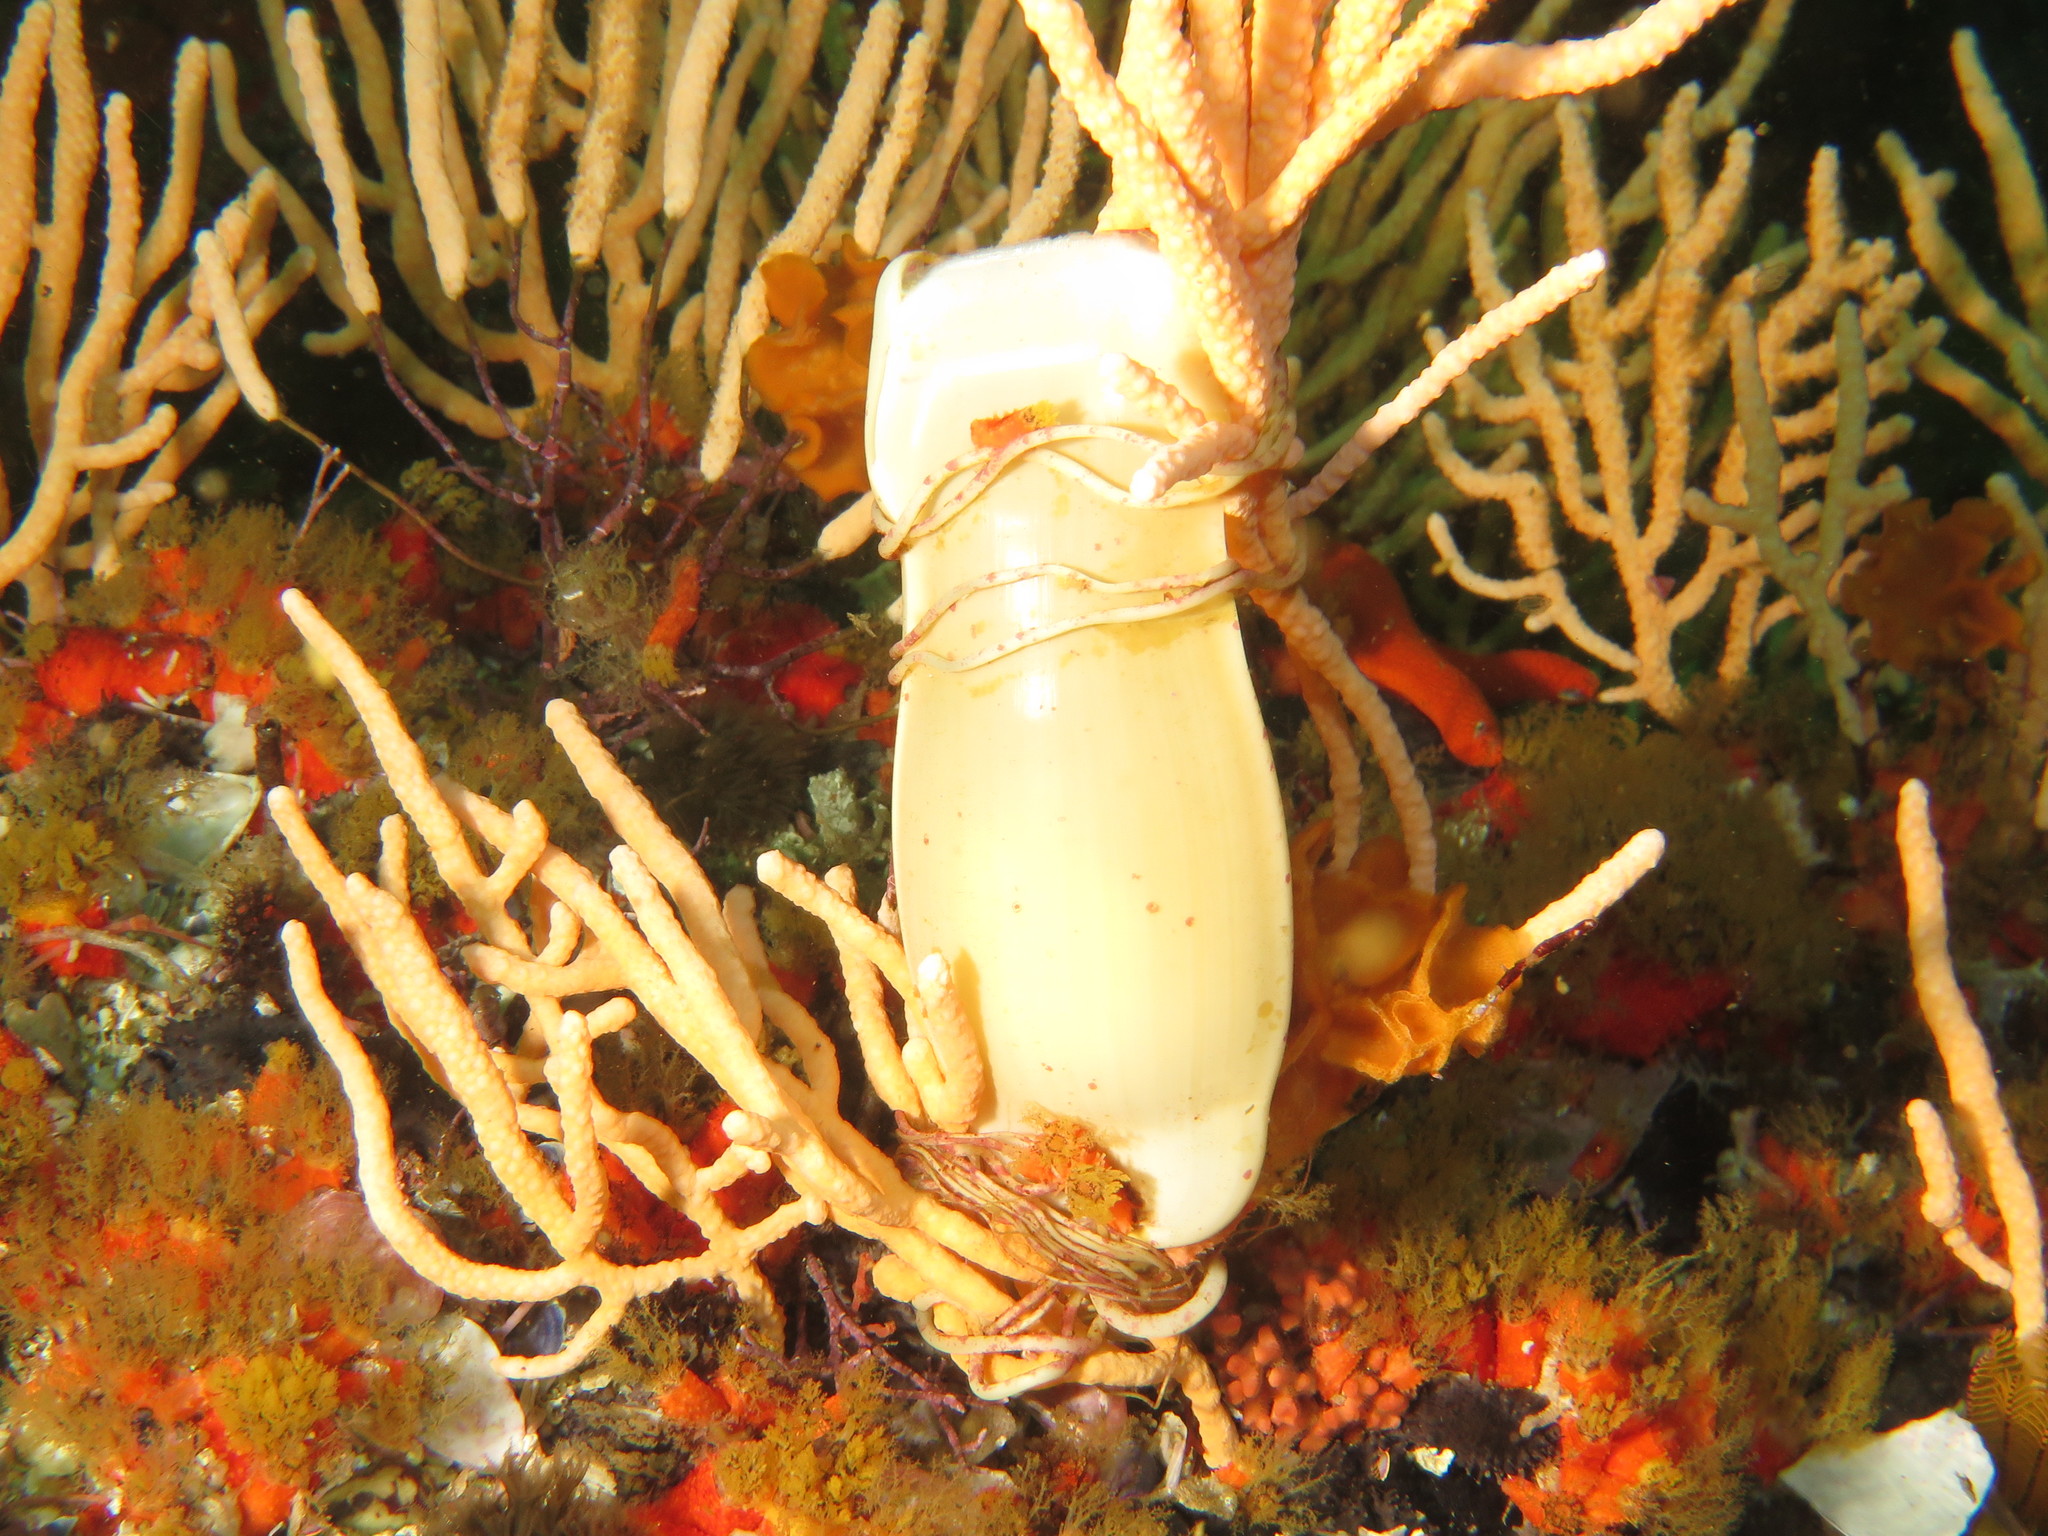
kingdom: Animalia
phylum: Chordata
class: Elasmobranchii
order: Carcharhiniformes
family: Scyliorhinidae
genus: Poroderma
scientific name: Poroderma pantherinum
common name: Leopard catshark
